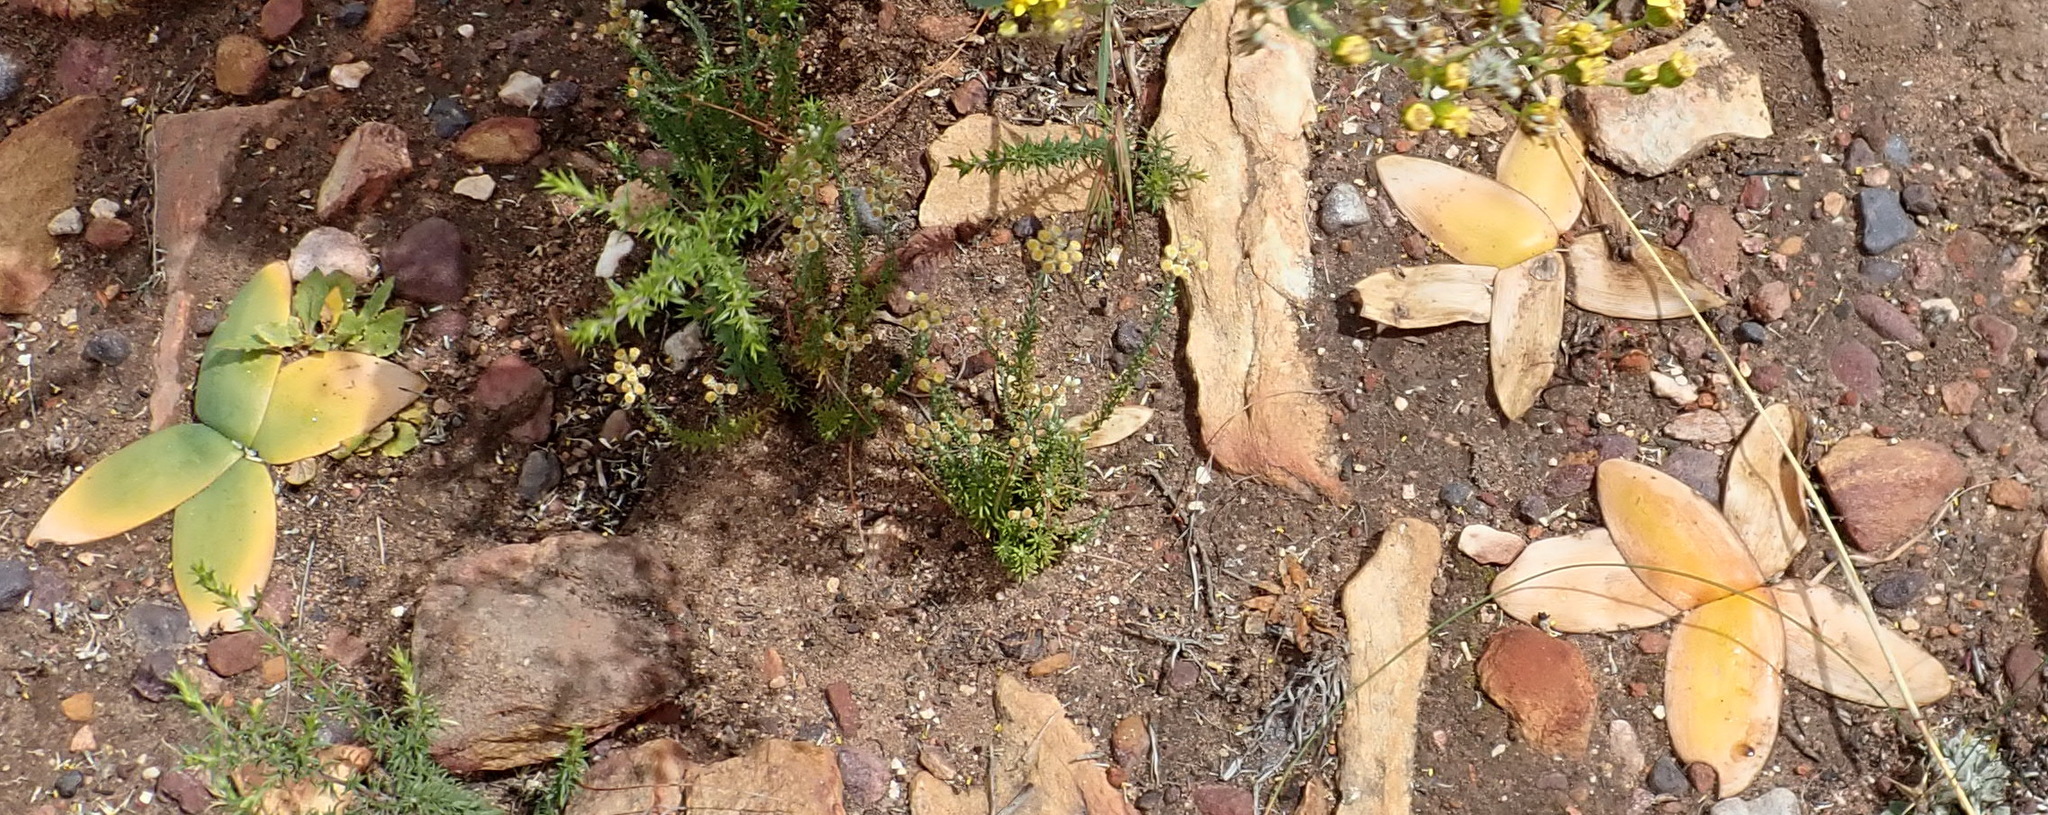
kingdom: Plantae
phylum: Tracheophyta
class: Liliopsida
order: Asparagales
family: Amaryllidaceae
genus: Brunsvigia
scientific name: Brunsvigia nervosa
